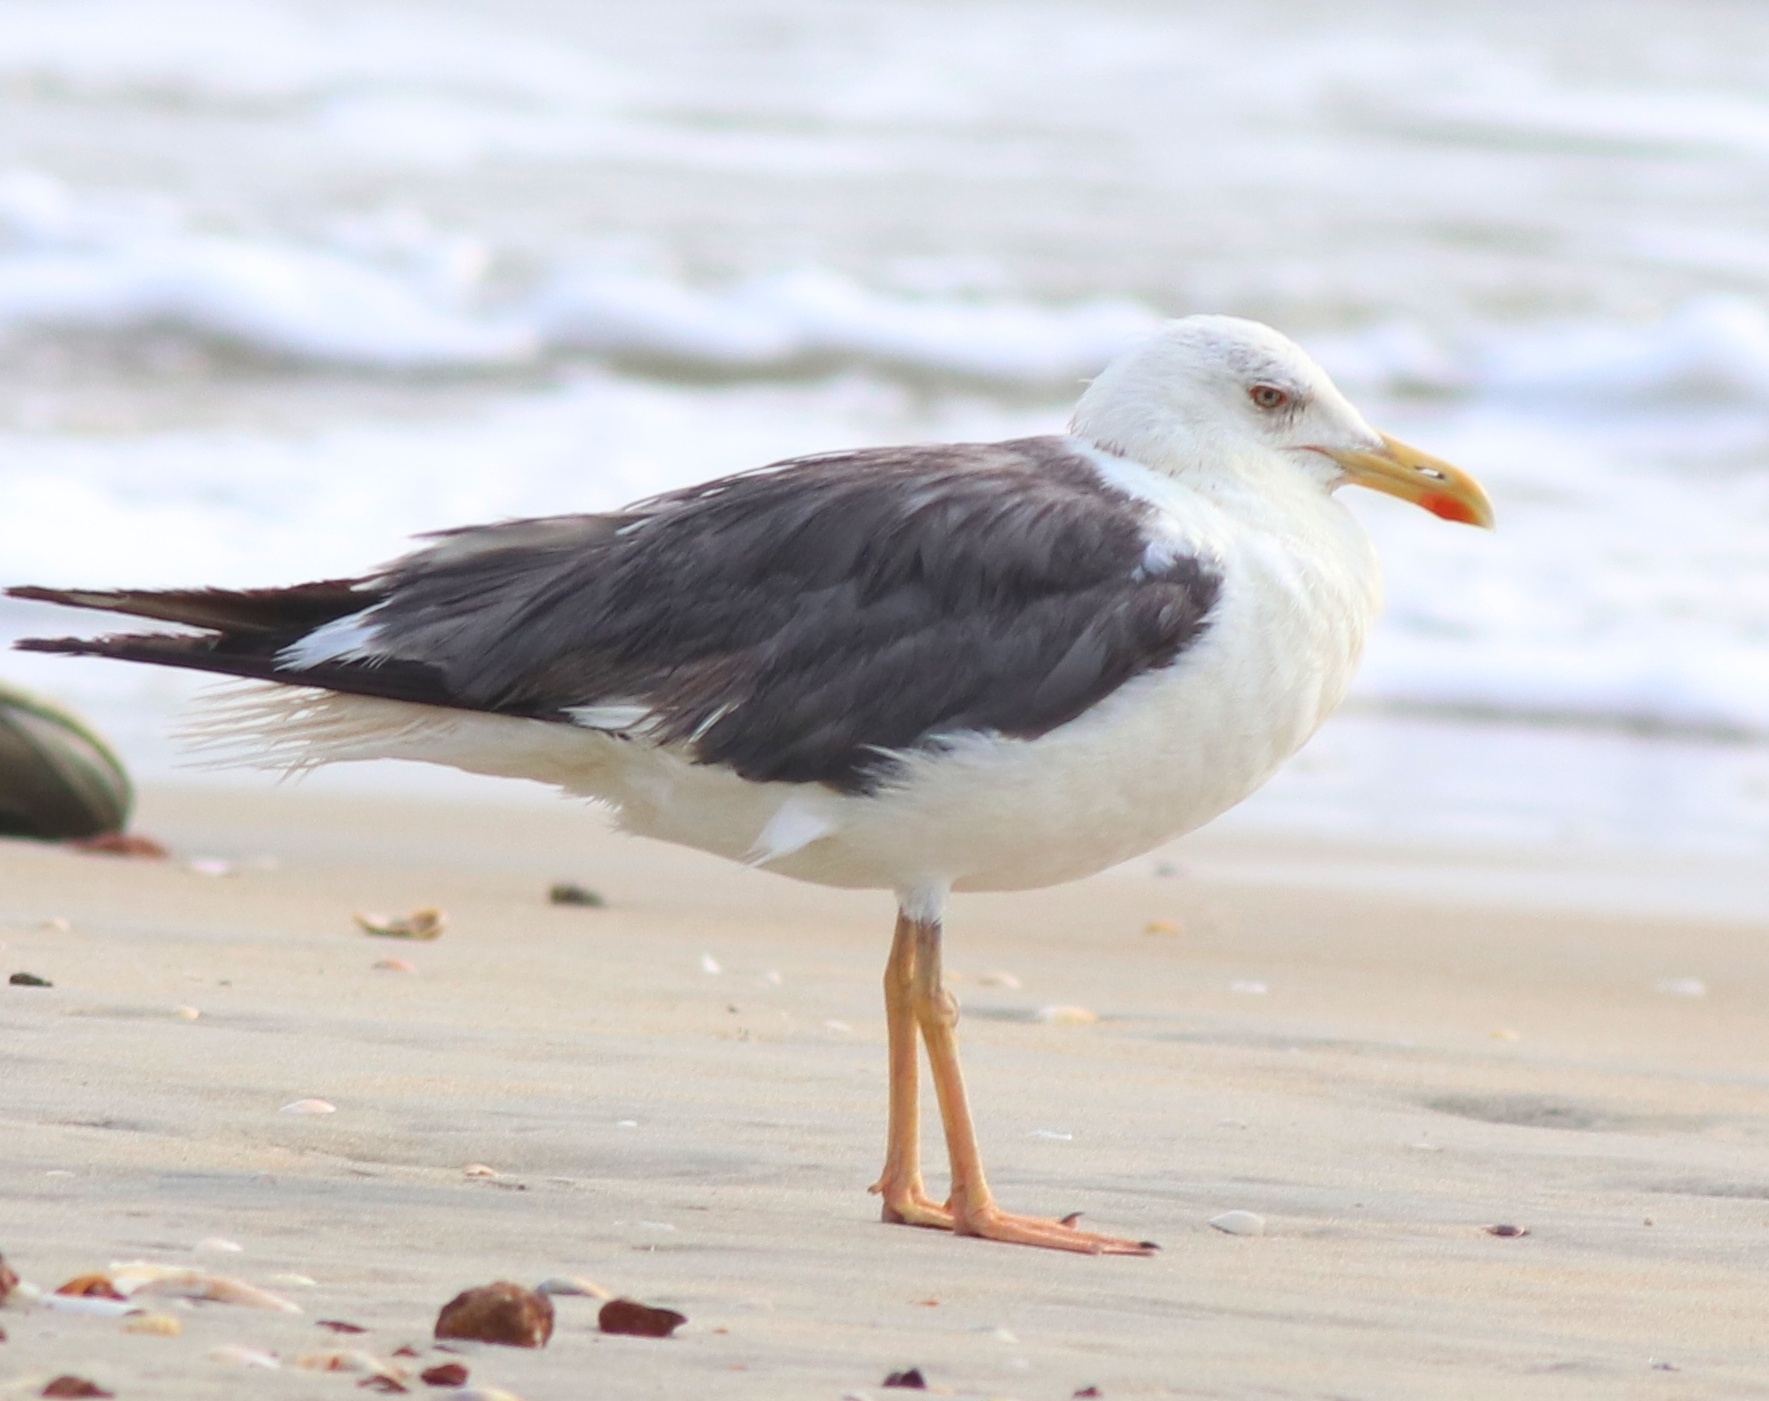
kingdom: Animalia
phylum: Chordata
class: Aves
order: Charadriiformes
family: Laridae
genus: Larus
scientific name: Larus fuscus
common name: Lesser black-backed gull
